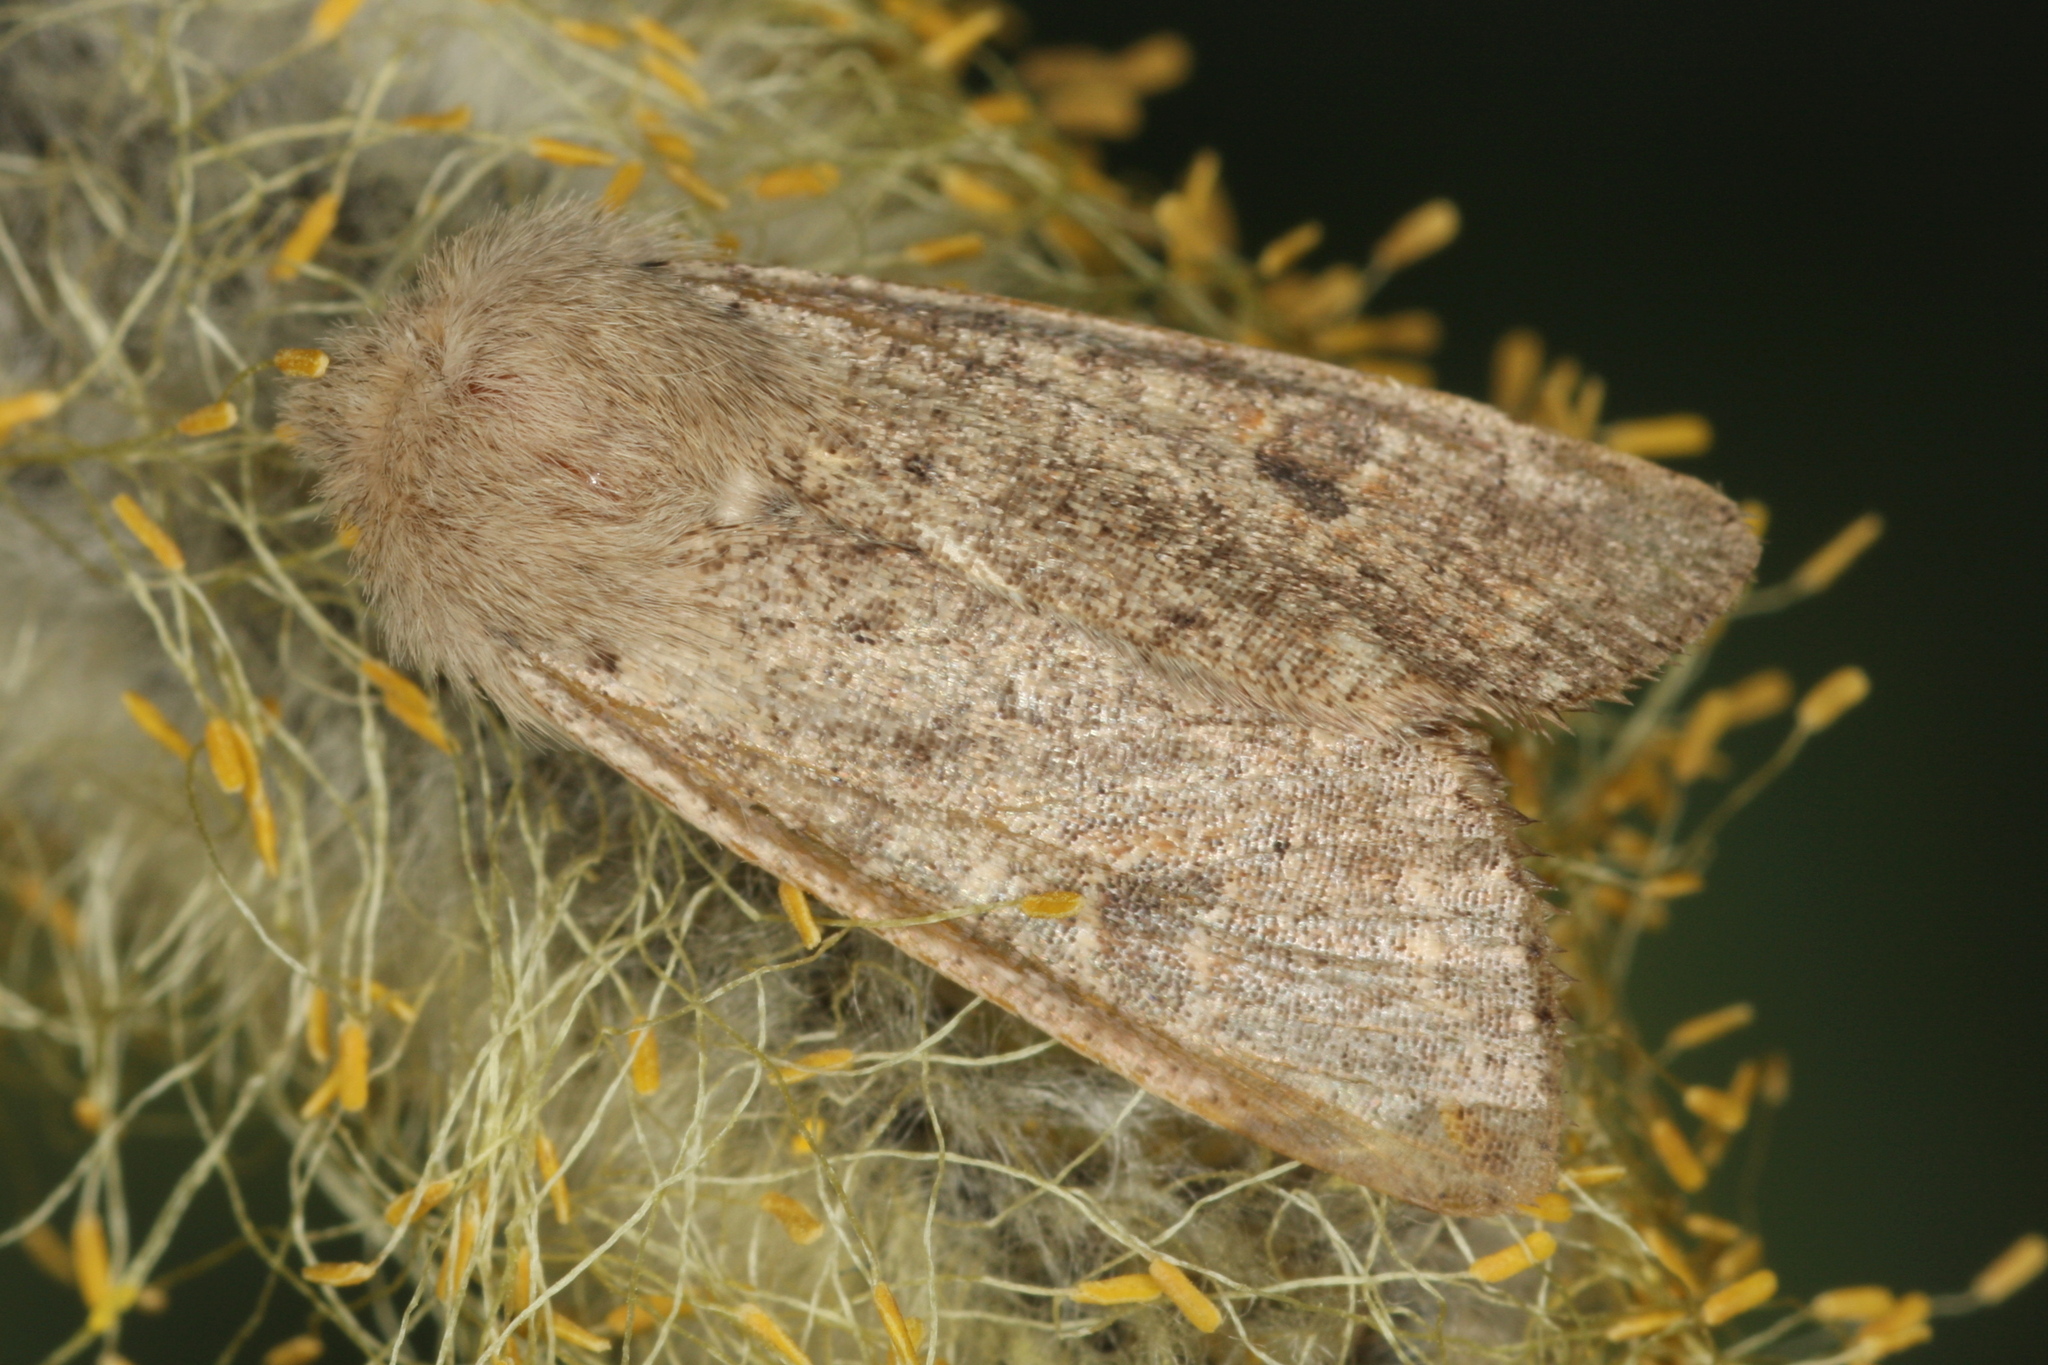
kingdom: Animalia
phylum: Arthropoda
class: Insecta
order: Lepidoptera
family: Noctuidae
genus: Orthosia
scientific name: Orthosia cruda
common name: Small quaker
